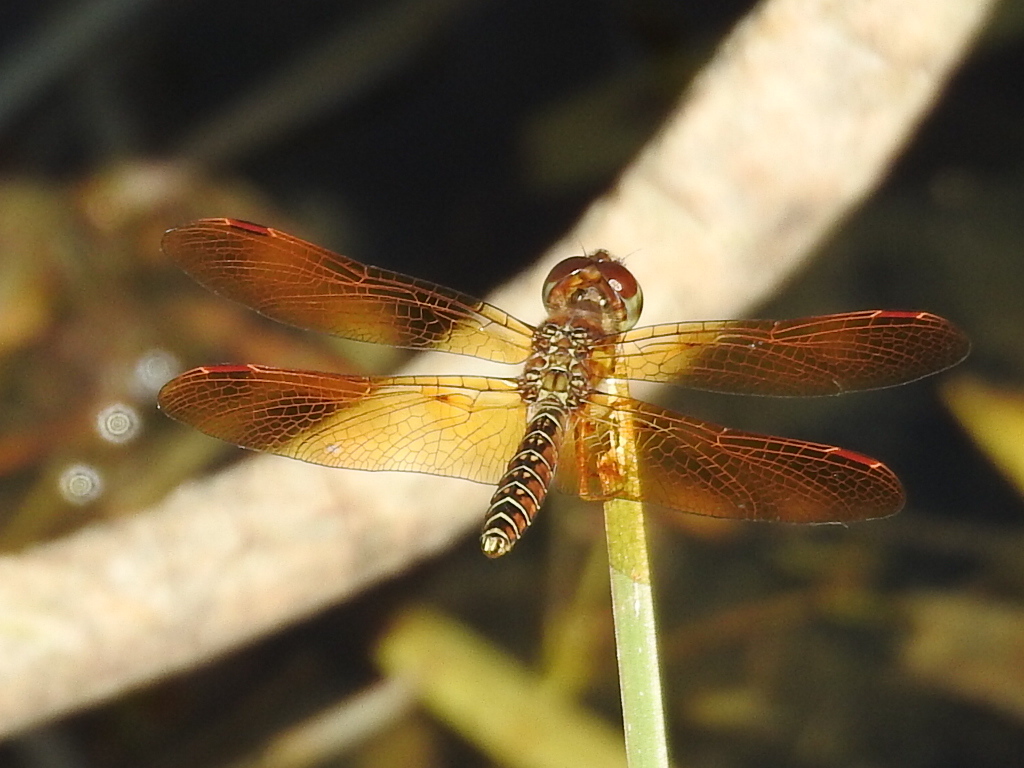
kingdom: Animalia
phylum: Arthropoda
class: Insecta
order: Odonata
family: Libellulidae
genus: Perithemis
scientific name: Perithemis tenera
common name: Eastern amberwing
